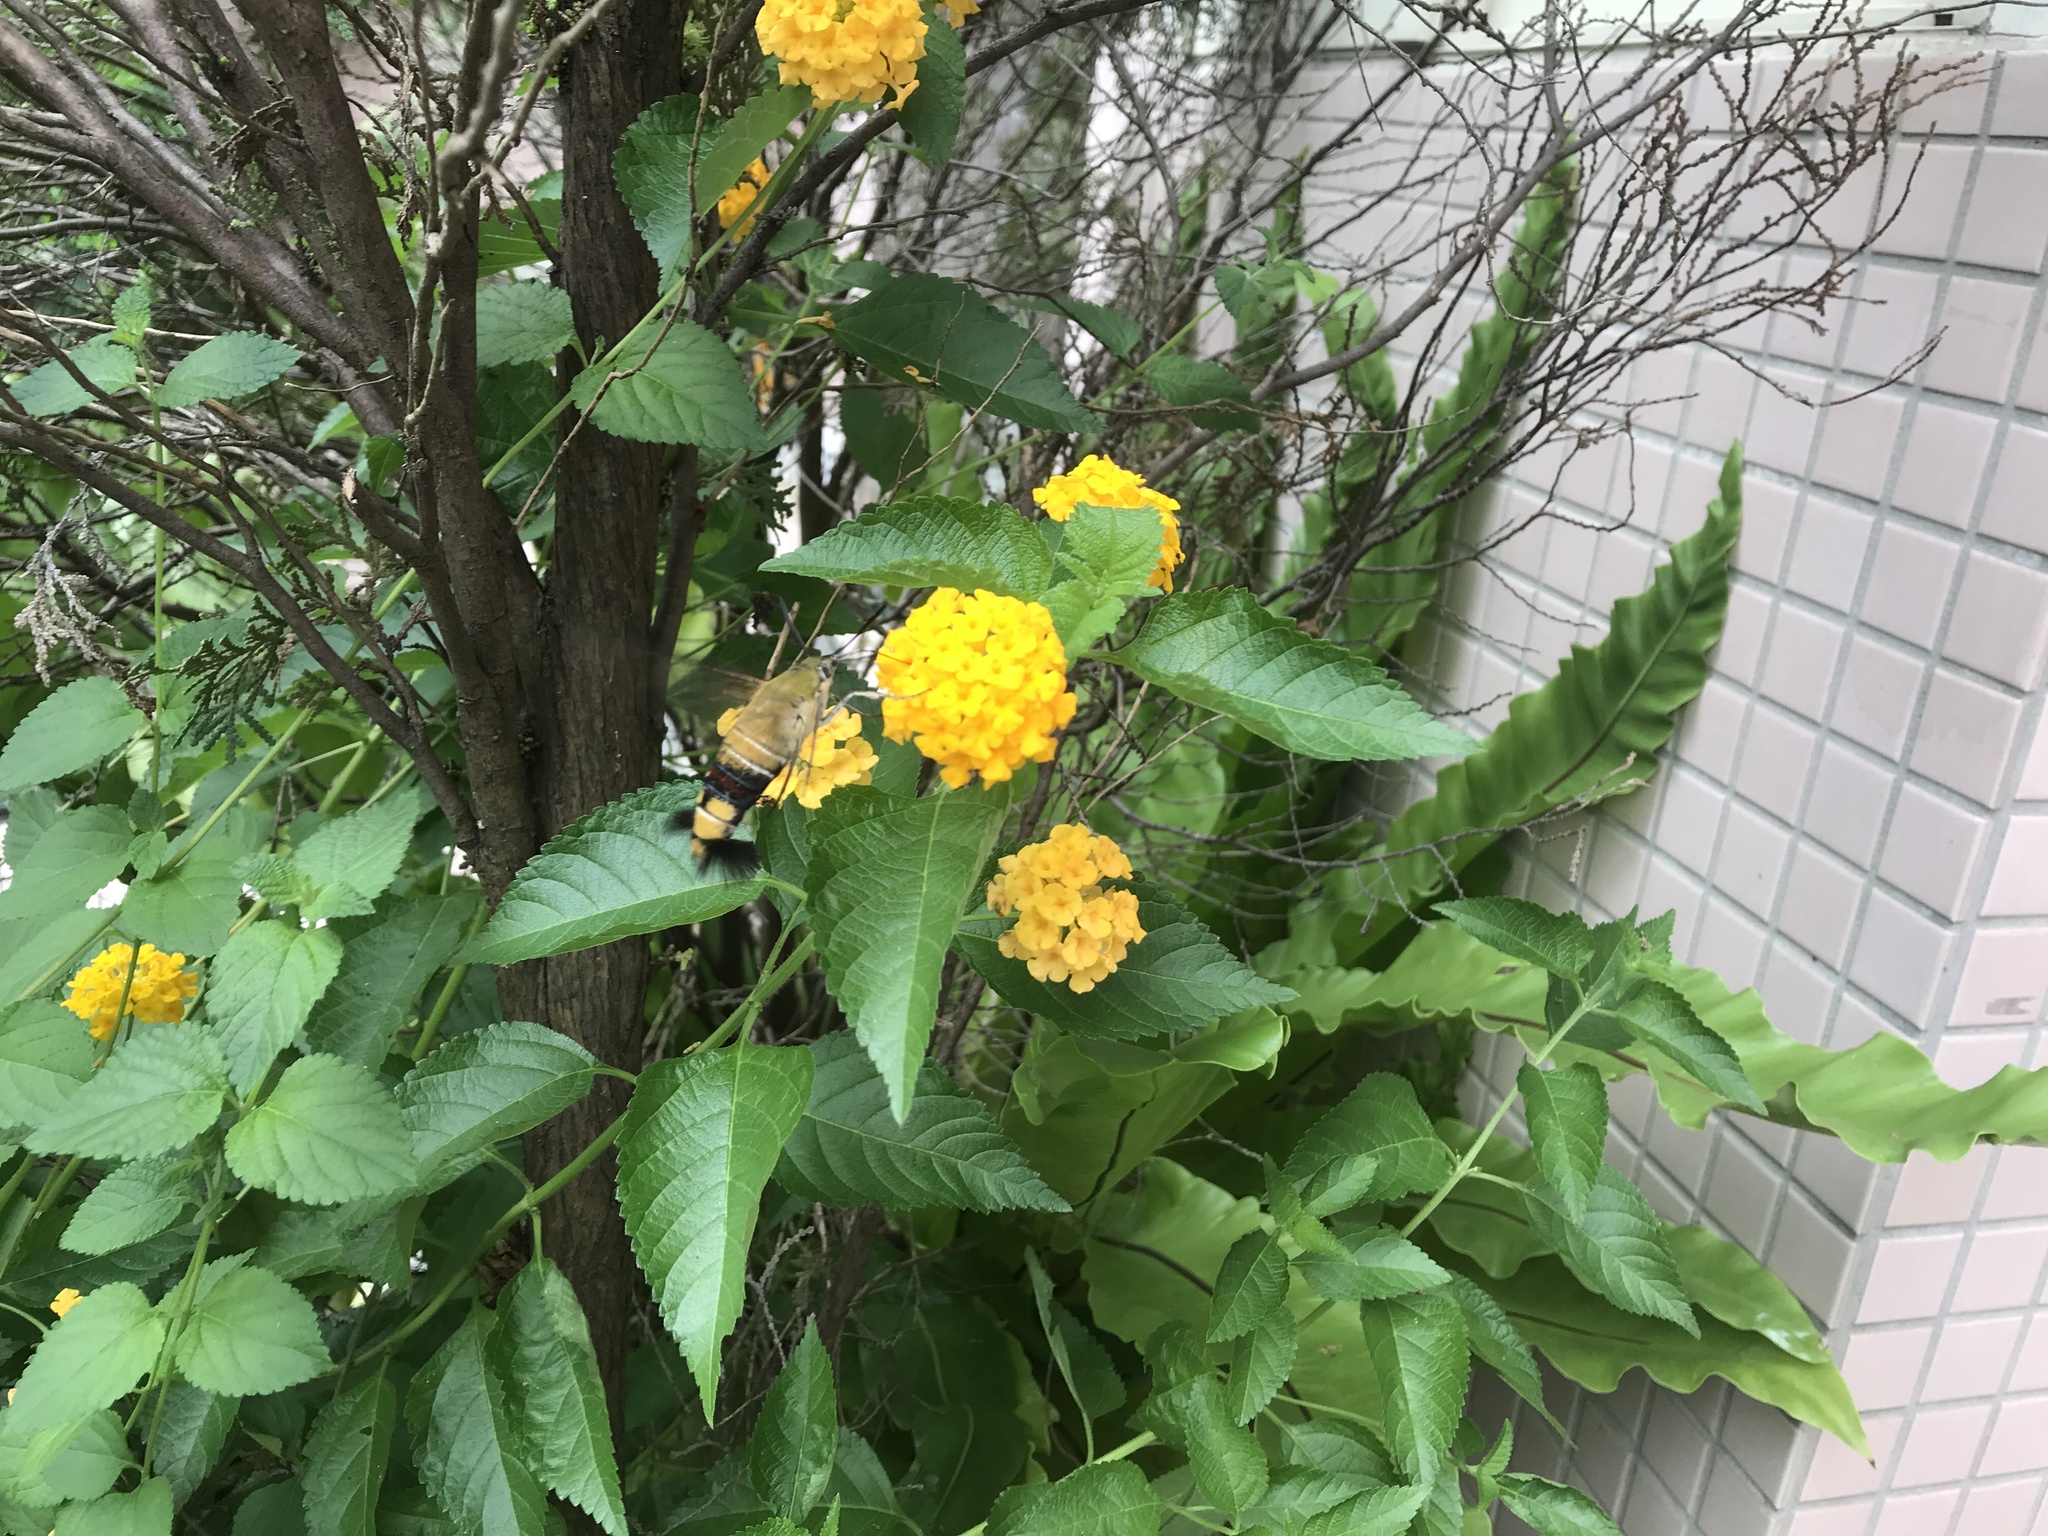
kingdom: Animalia
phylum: Arthropoda
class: Insecta
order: Lepidoptera
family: Sphingidae
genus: Cephonodes
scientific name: Cephonodes hylas
